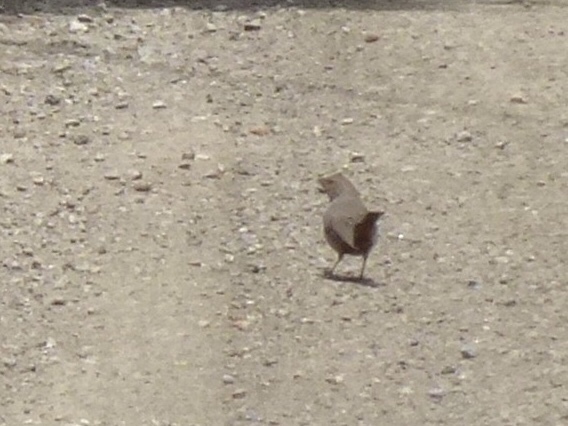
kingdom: Animalia
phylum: Chordata
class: Aves
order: Passeriformes
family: Passerellidae
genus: Melozone
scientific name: Melozone crissalis
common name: California towhee
